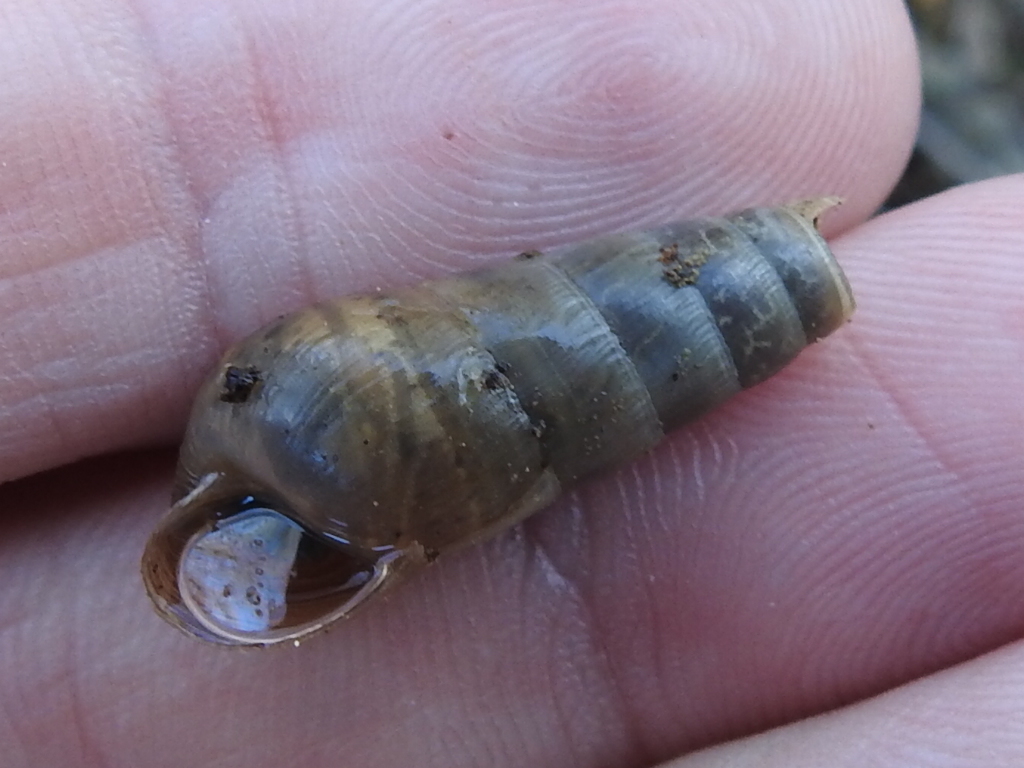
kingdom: Animalia
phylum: Mollusca
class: Gastropoda
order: Stylommatophora
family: Achatinidae
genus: Rumina
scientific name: Rumina decollata
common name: Decollate snail
